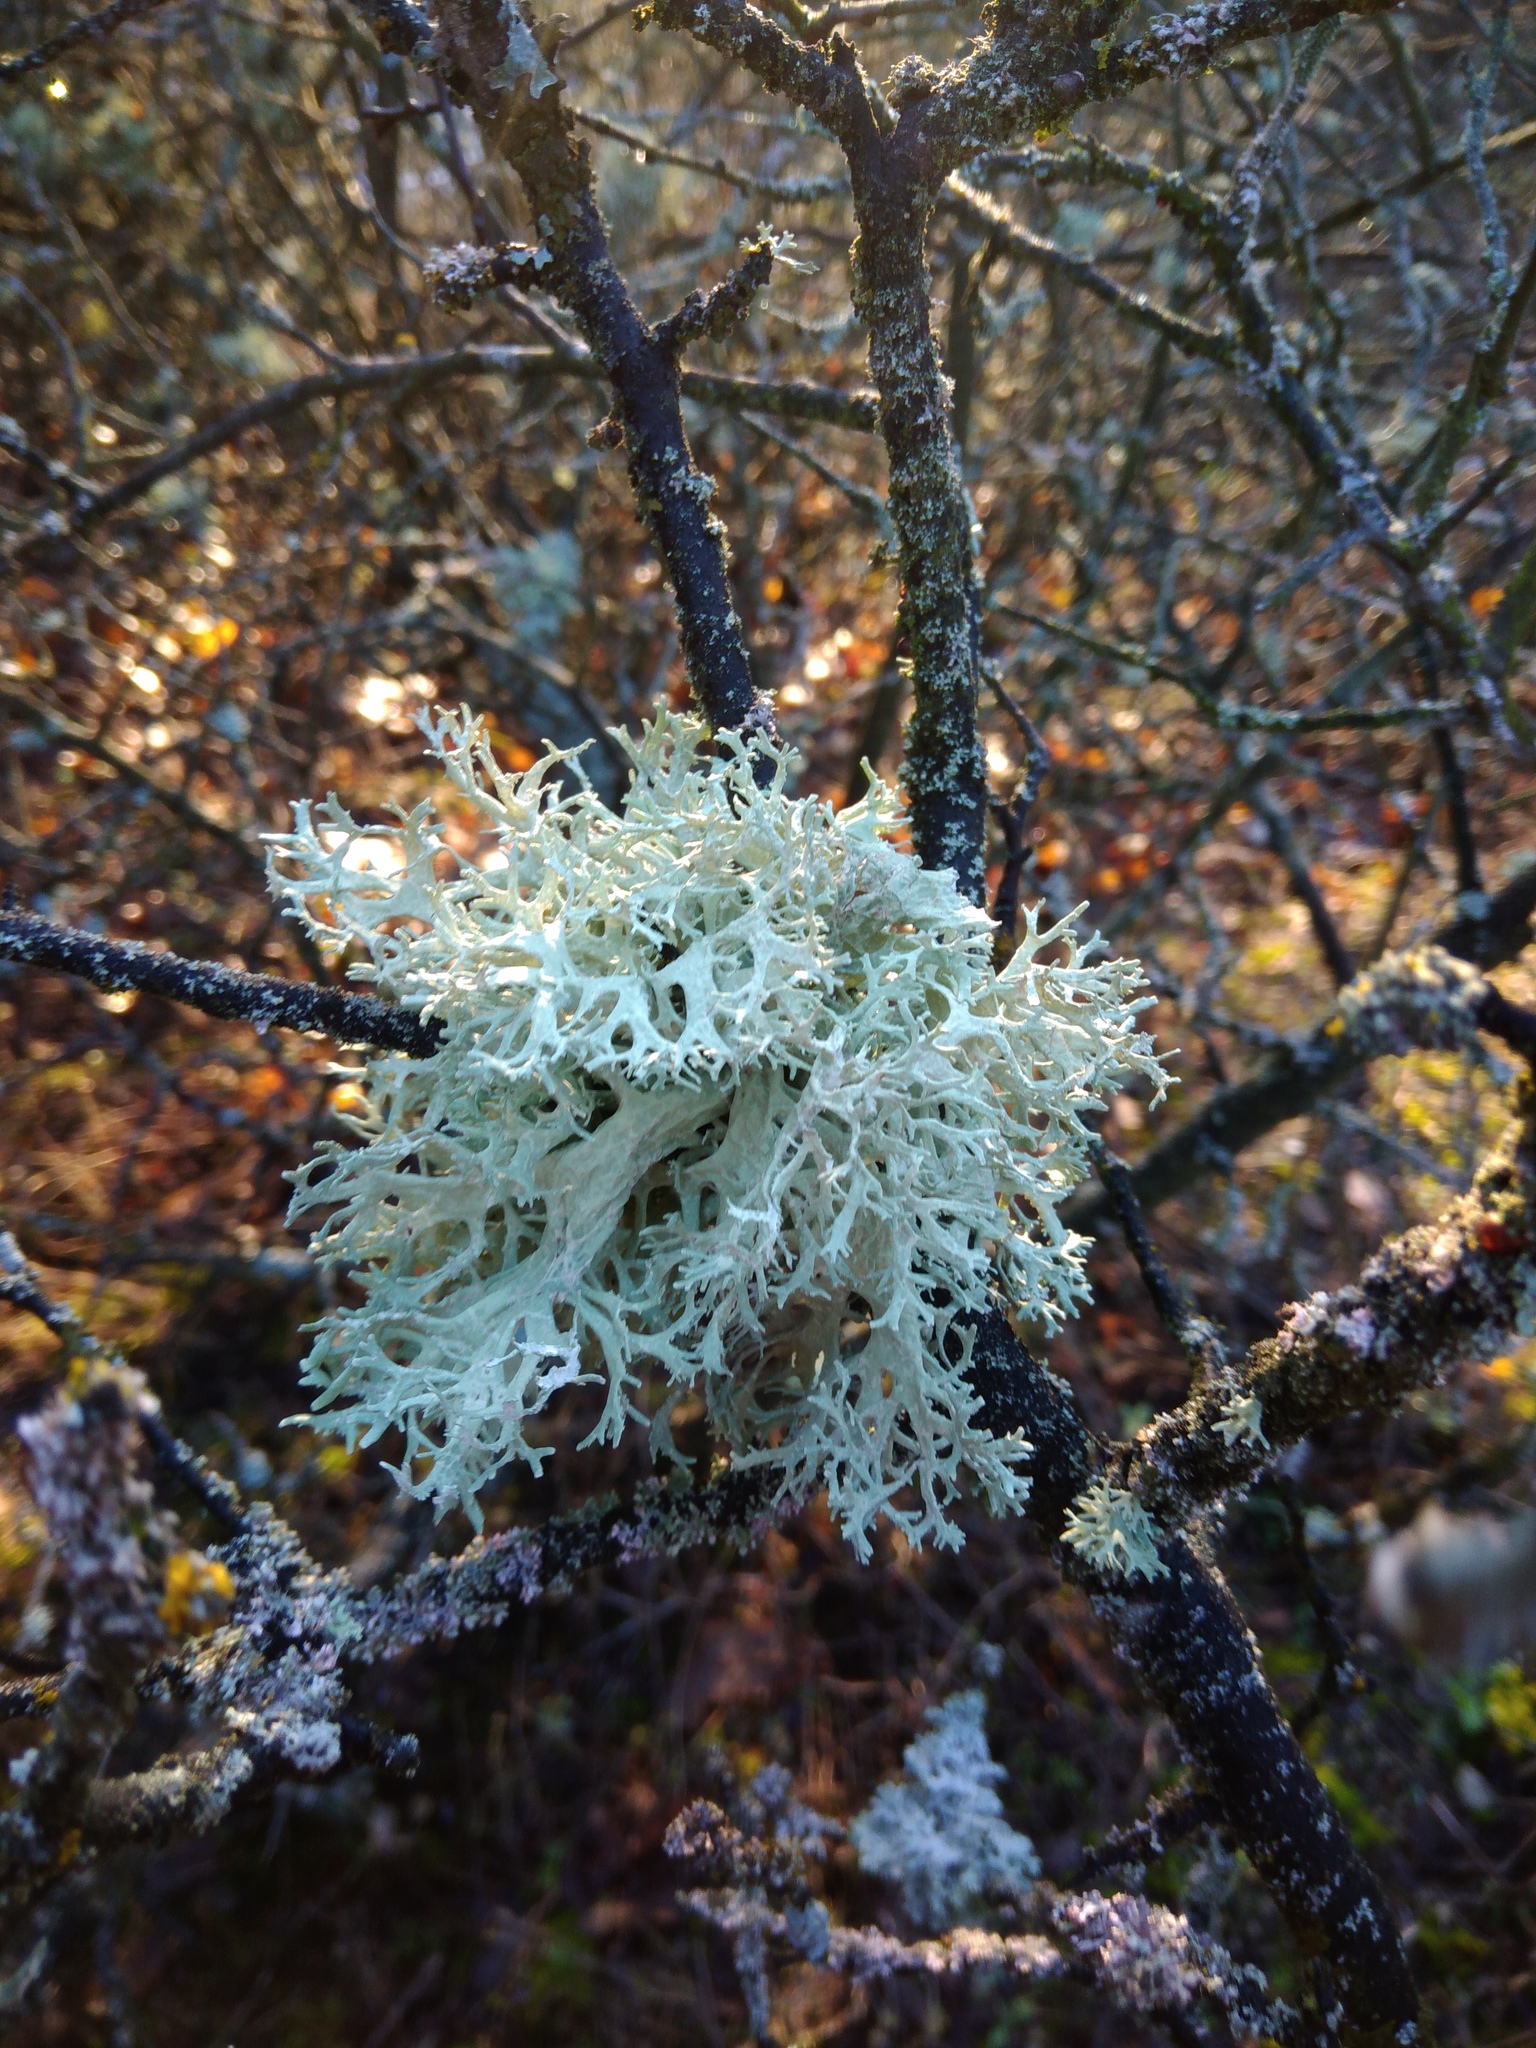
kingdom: Fungi
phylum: Ascomycota
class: Lecanoromycetes
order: Lecanorales
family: Parmeliaceae
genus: Evernia
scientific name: Evernia prunastri
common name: Oak moss
